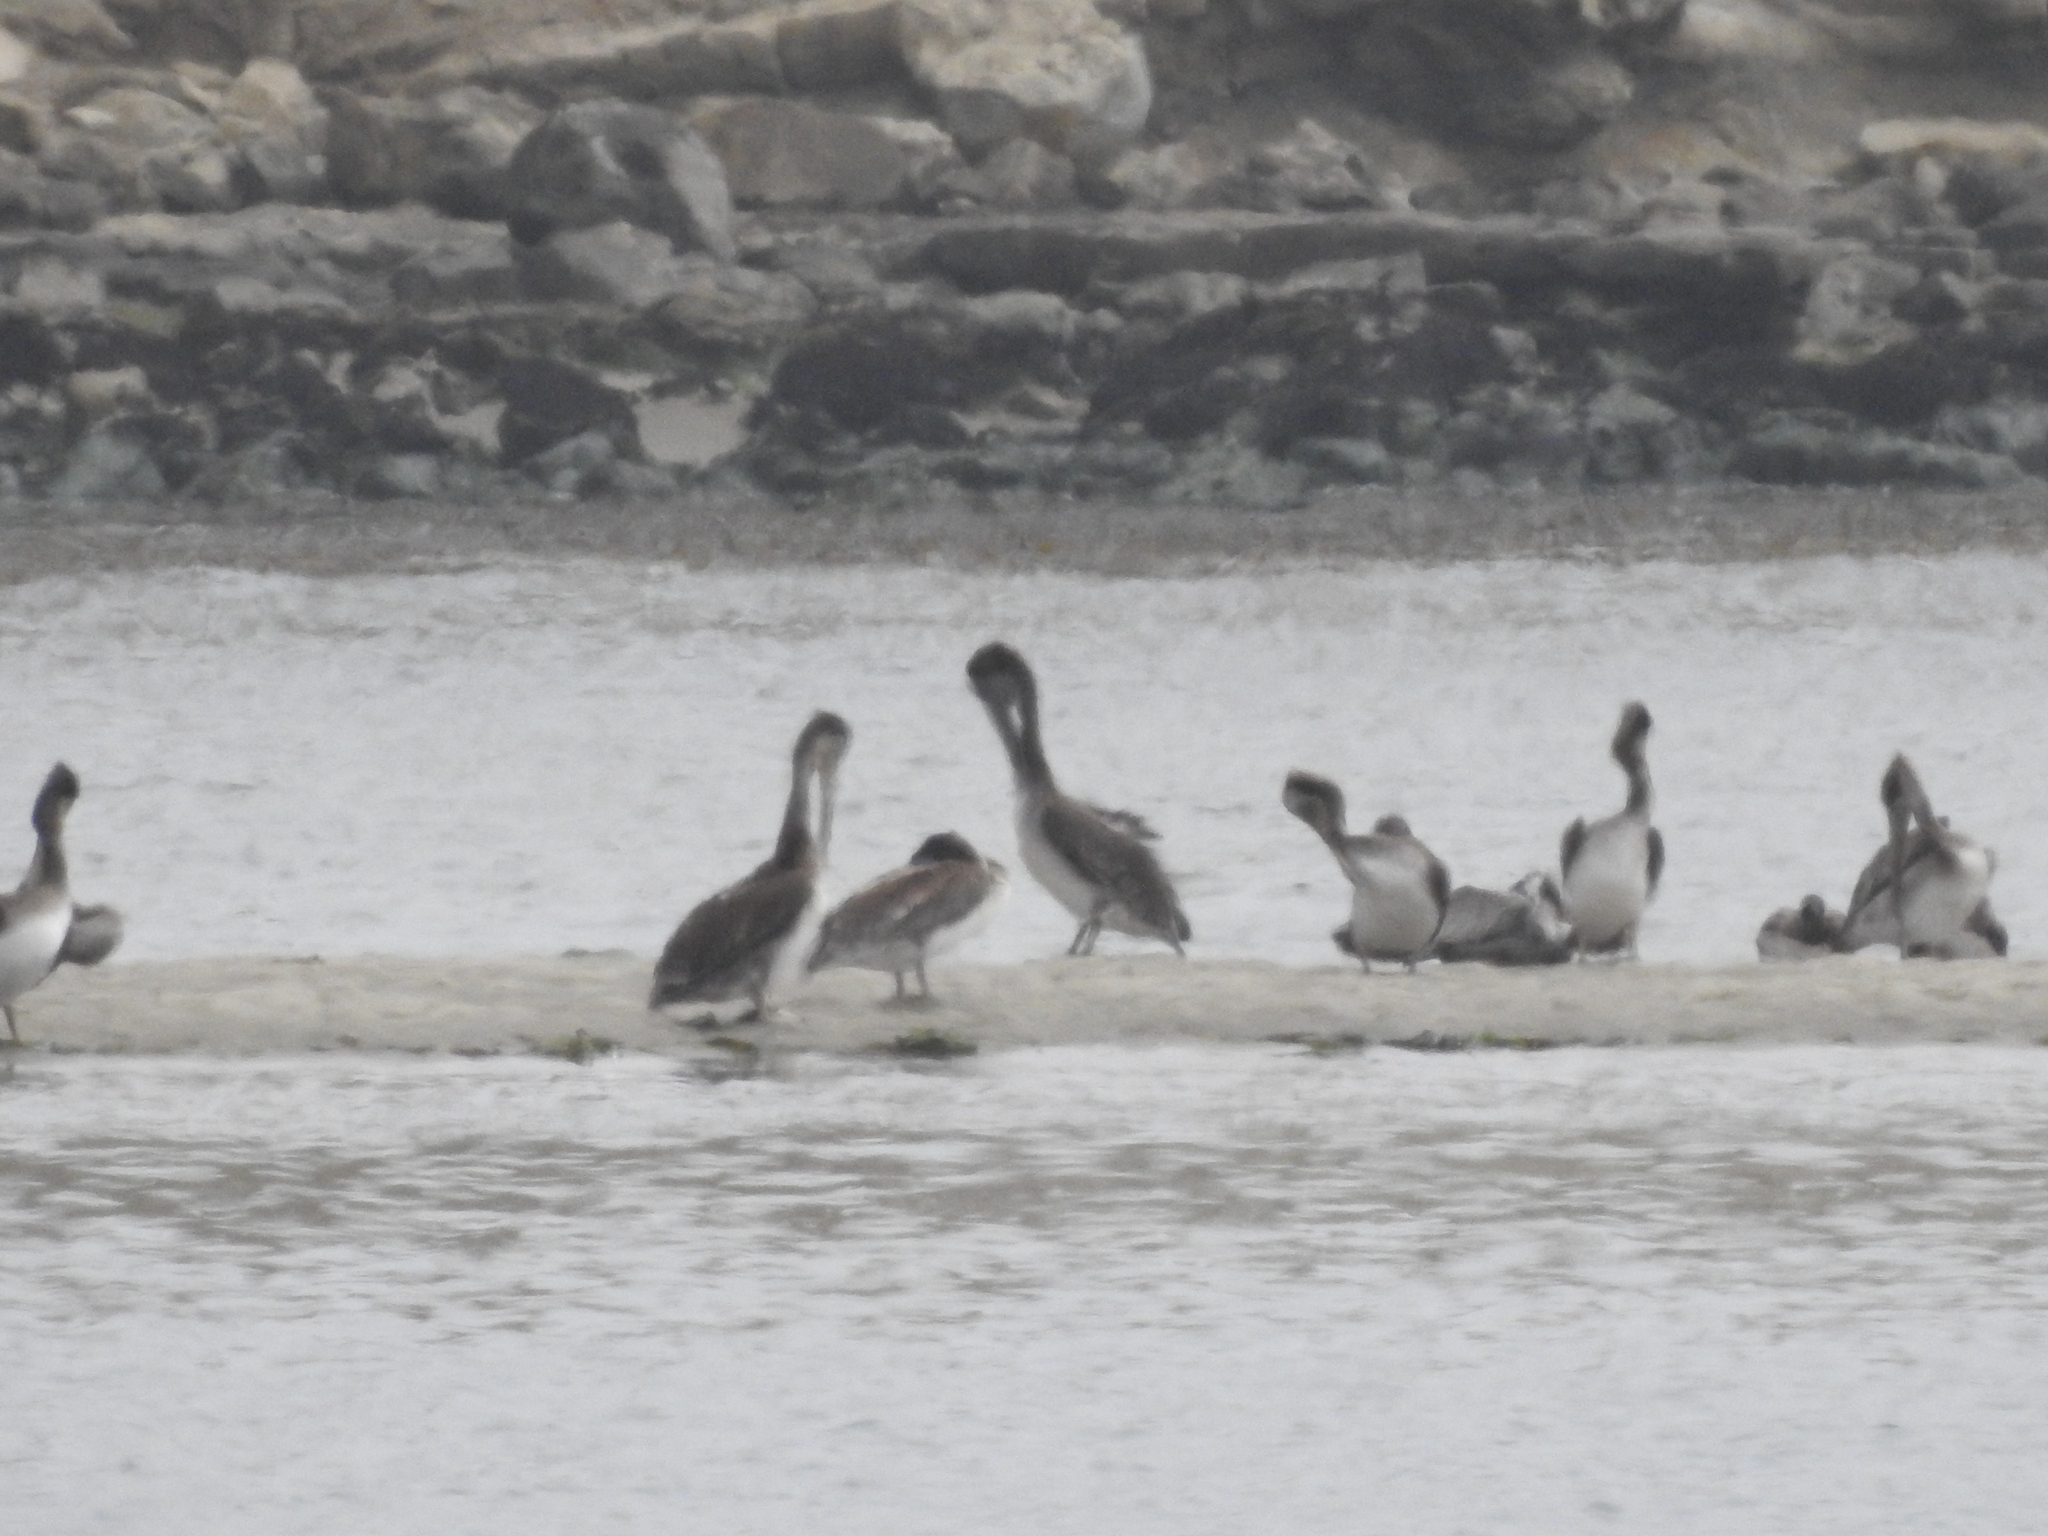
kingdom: Animalia
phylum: Chordata
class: Aves
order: Pelecaniformes
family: Pelecanidae
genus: Pelecanus
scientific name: Pelecanus occidentalis
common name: Brown pelican
